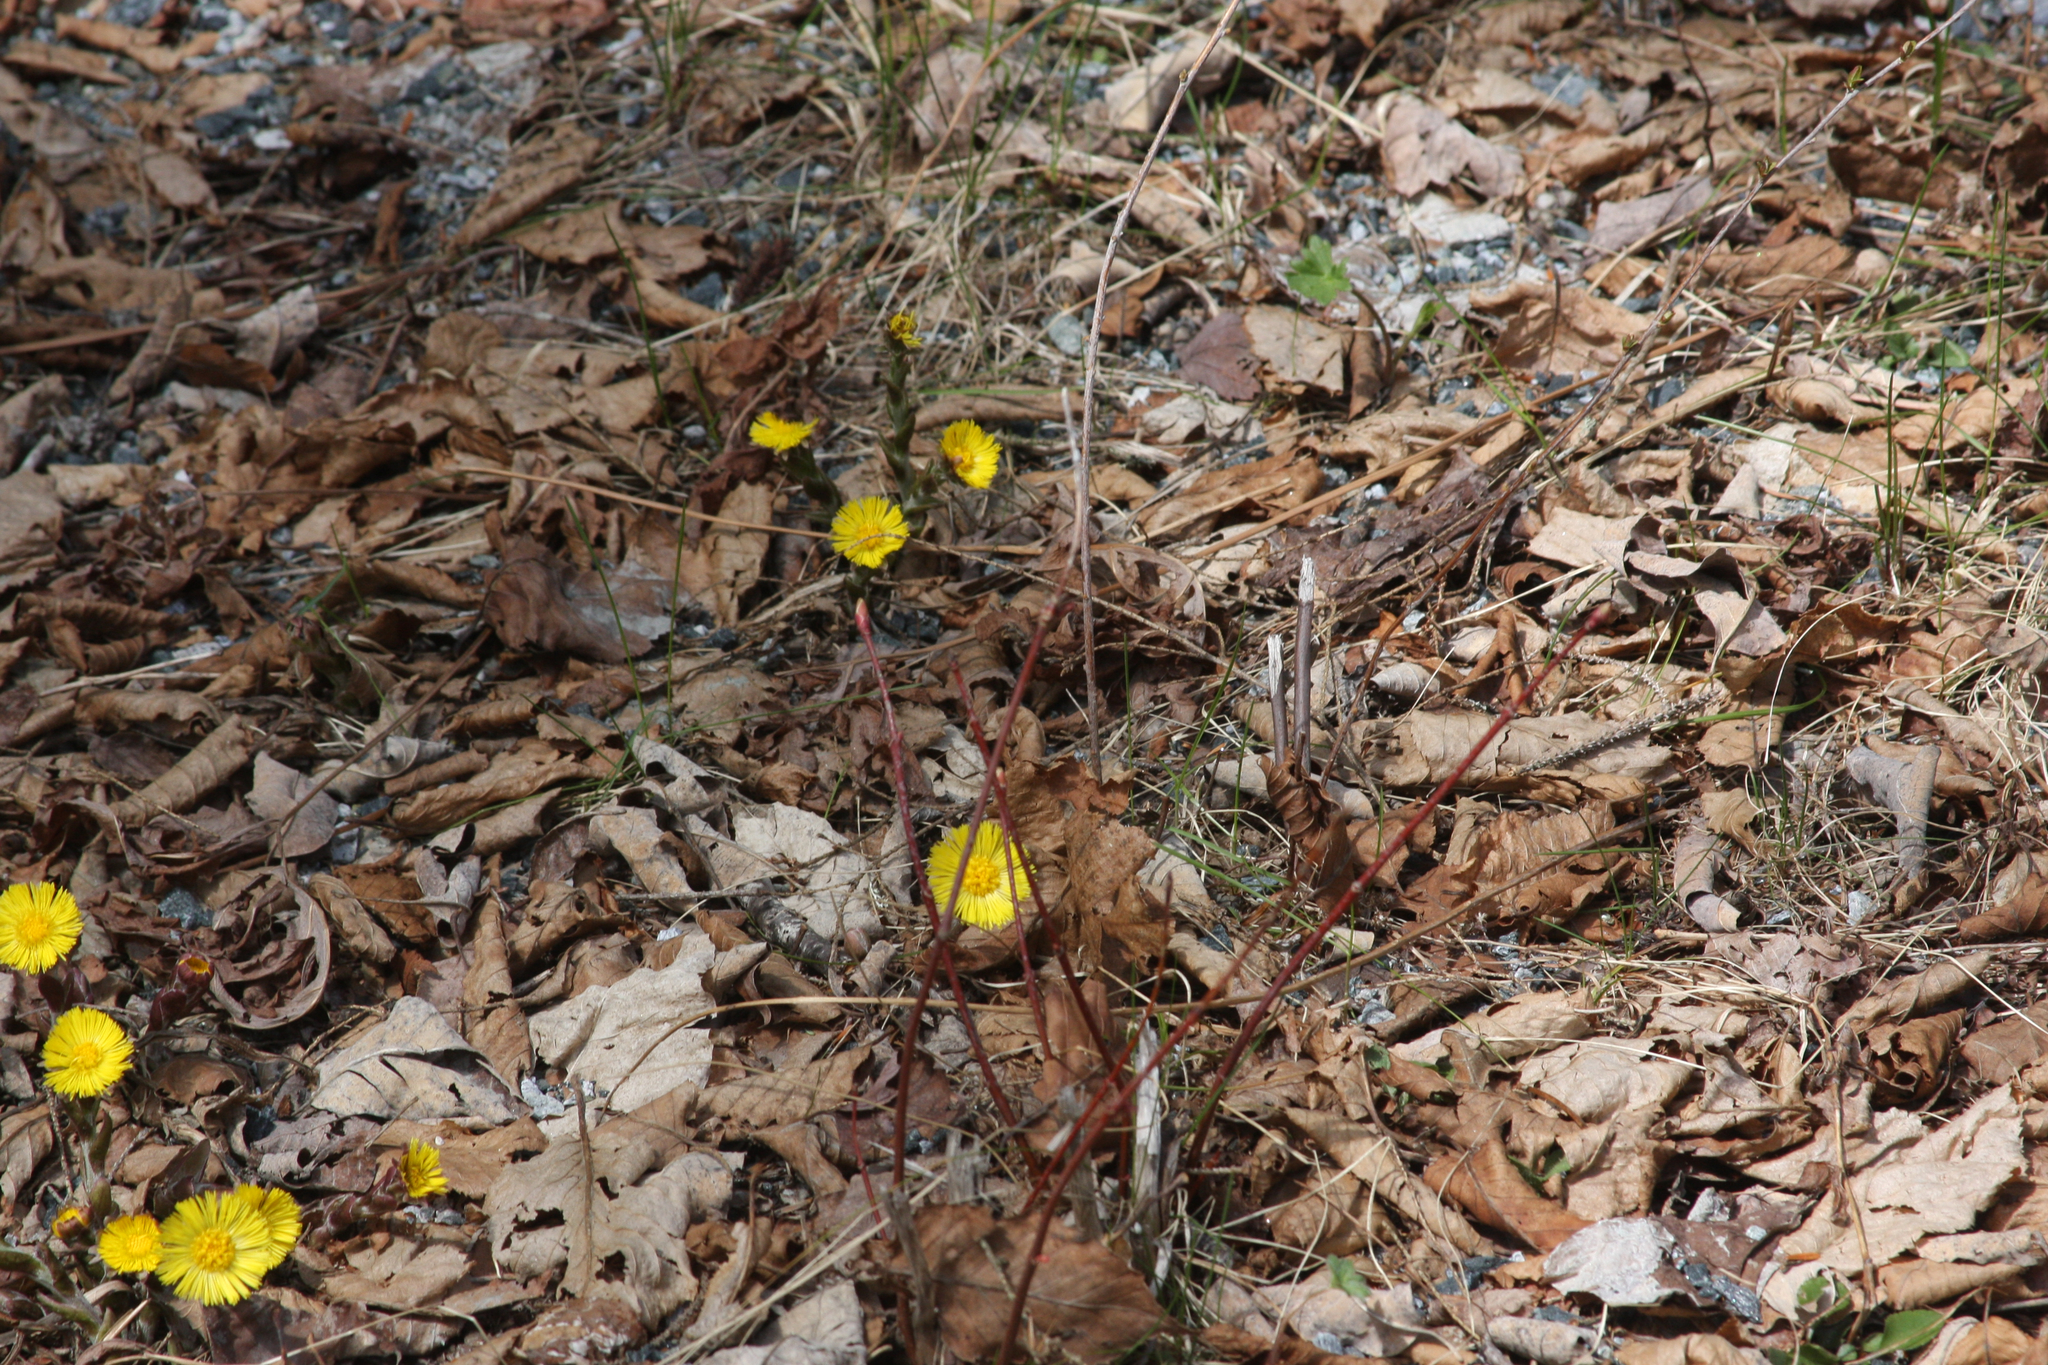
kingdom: Plantae
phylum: Tracheophyta
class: Magnoliopsida
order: Asterales
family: Asteraceae
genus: Tussilago
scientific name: Tussilago farfara
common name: Coltsfoot
